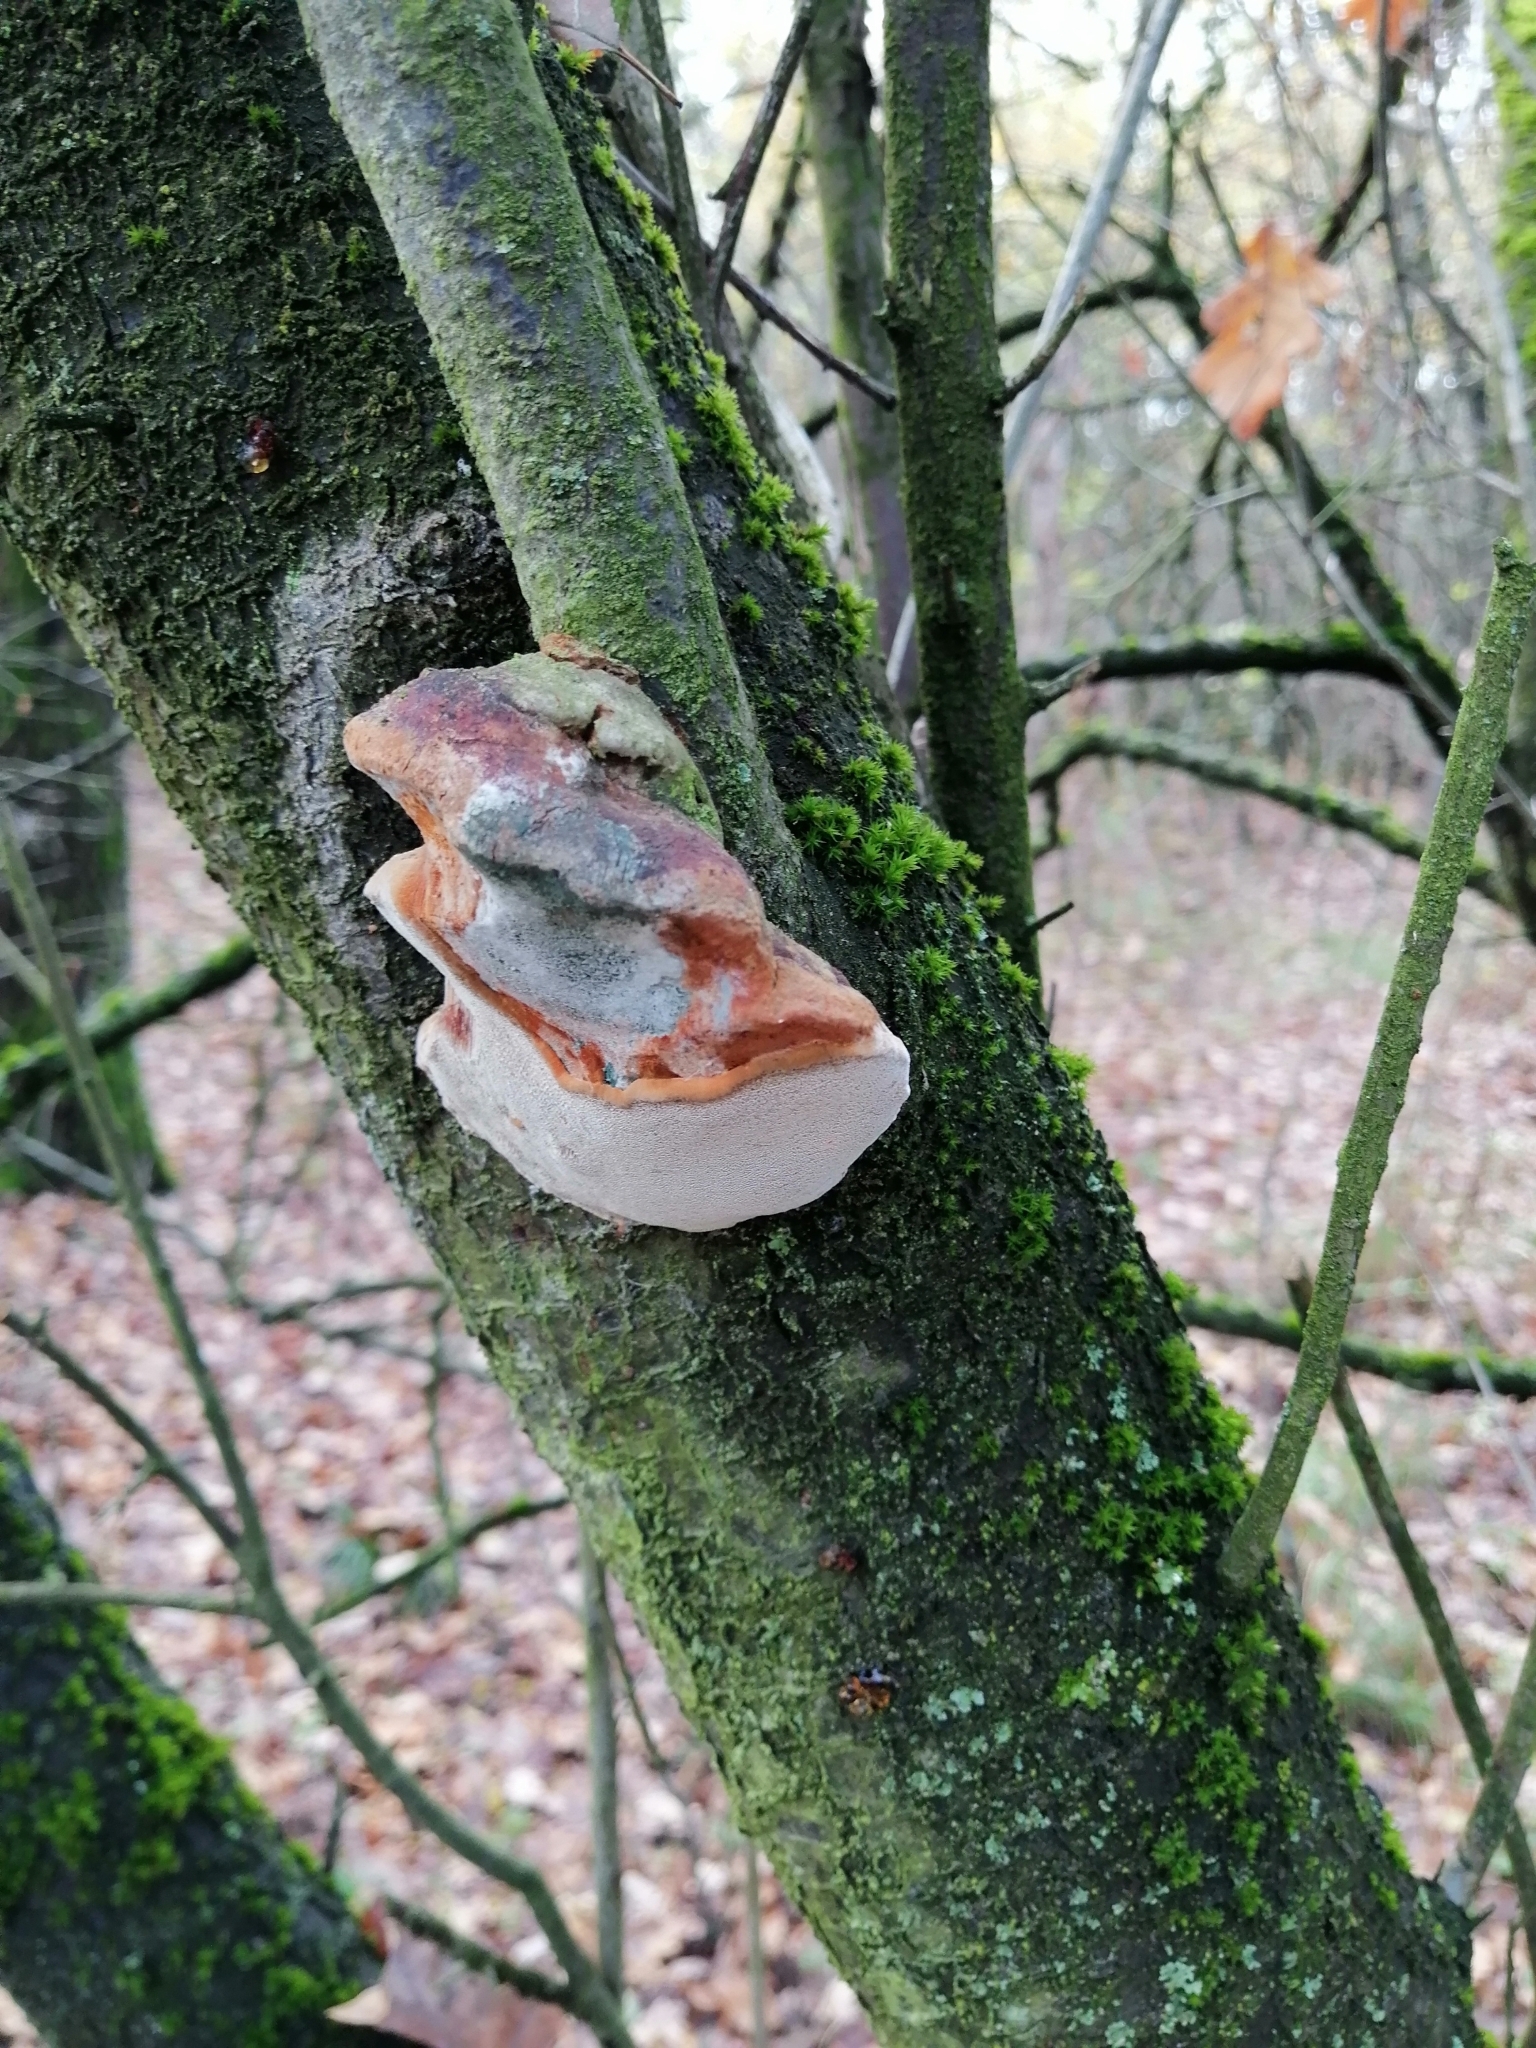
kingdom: Fungi
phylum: Basidiomycota
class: Agaricomycetes
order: Hymenochaetales
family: Hymenochaetaceae
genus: Phellinus
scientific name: Phellinus pomaceus
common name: Cushion bracket
